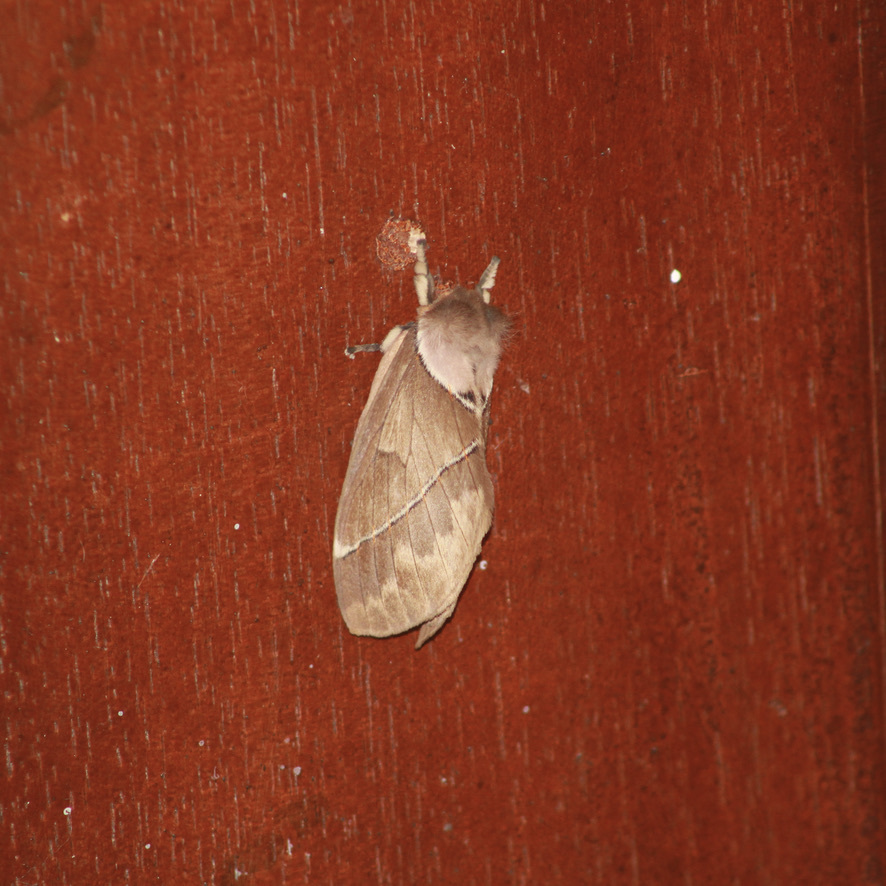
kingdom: Animalia
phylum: Arthropoda
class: Insecta
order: Lepidoptera
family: Saturniidae
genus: Pseudodirphia
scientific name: Pseudodirphia eumedide
